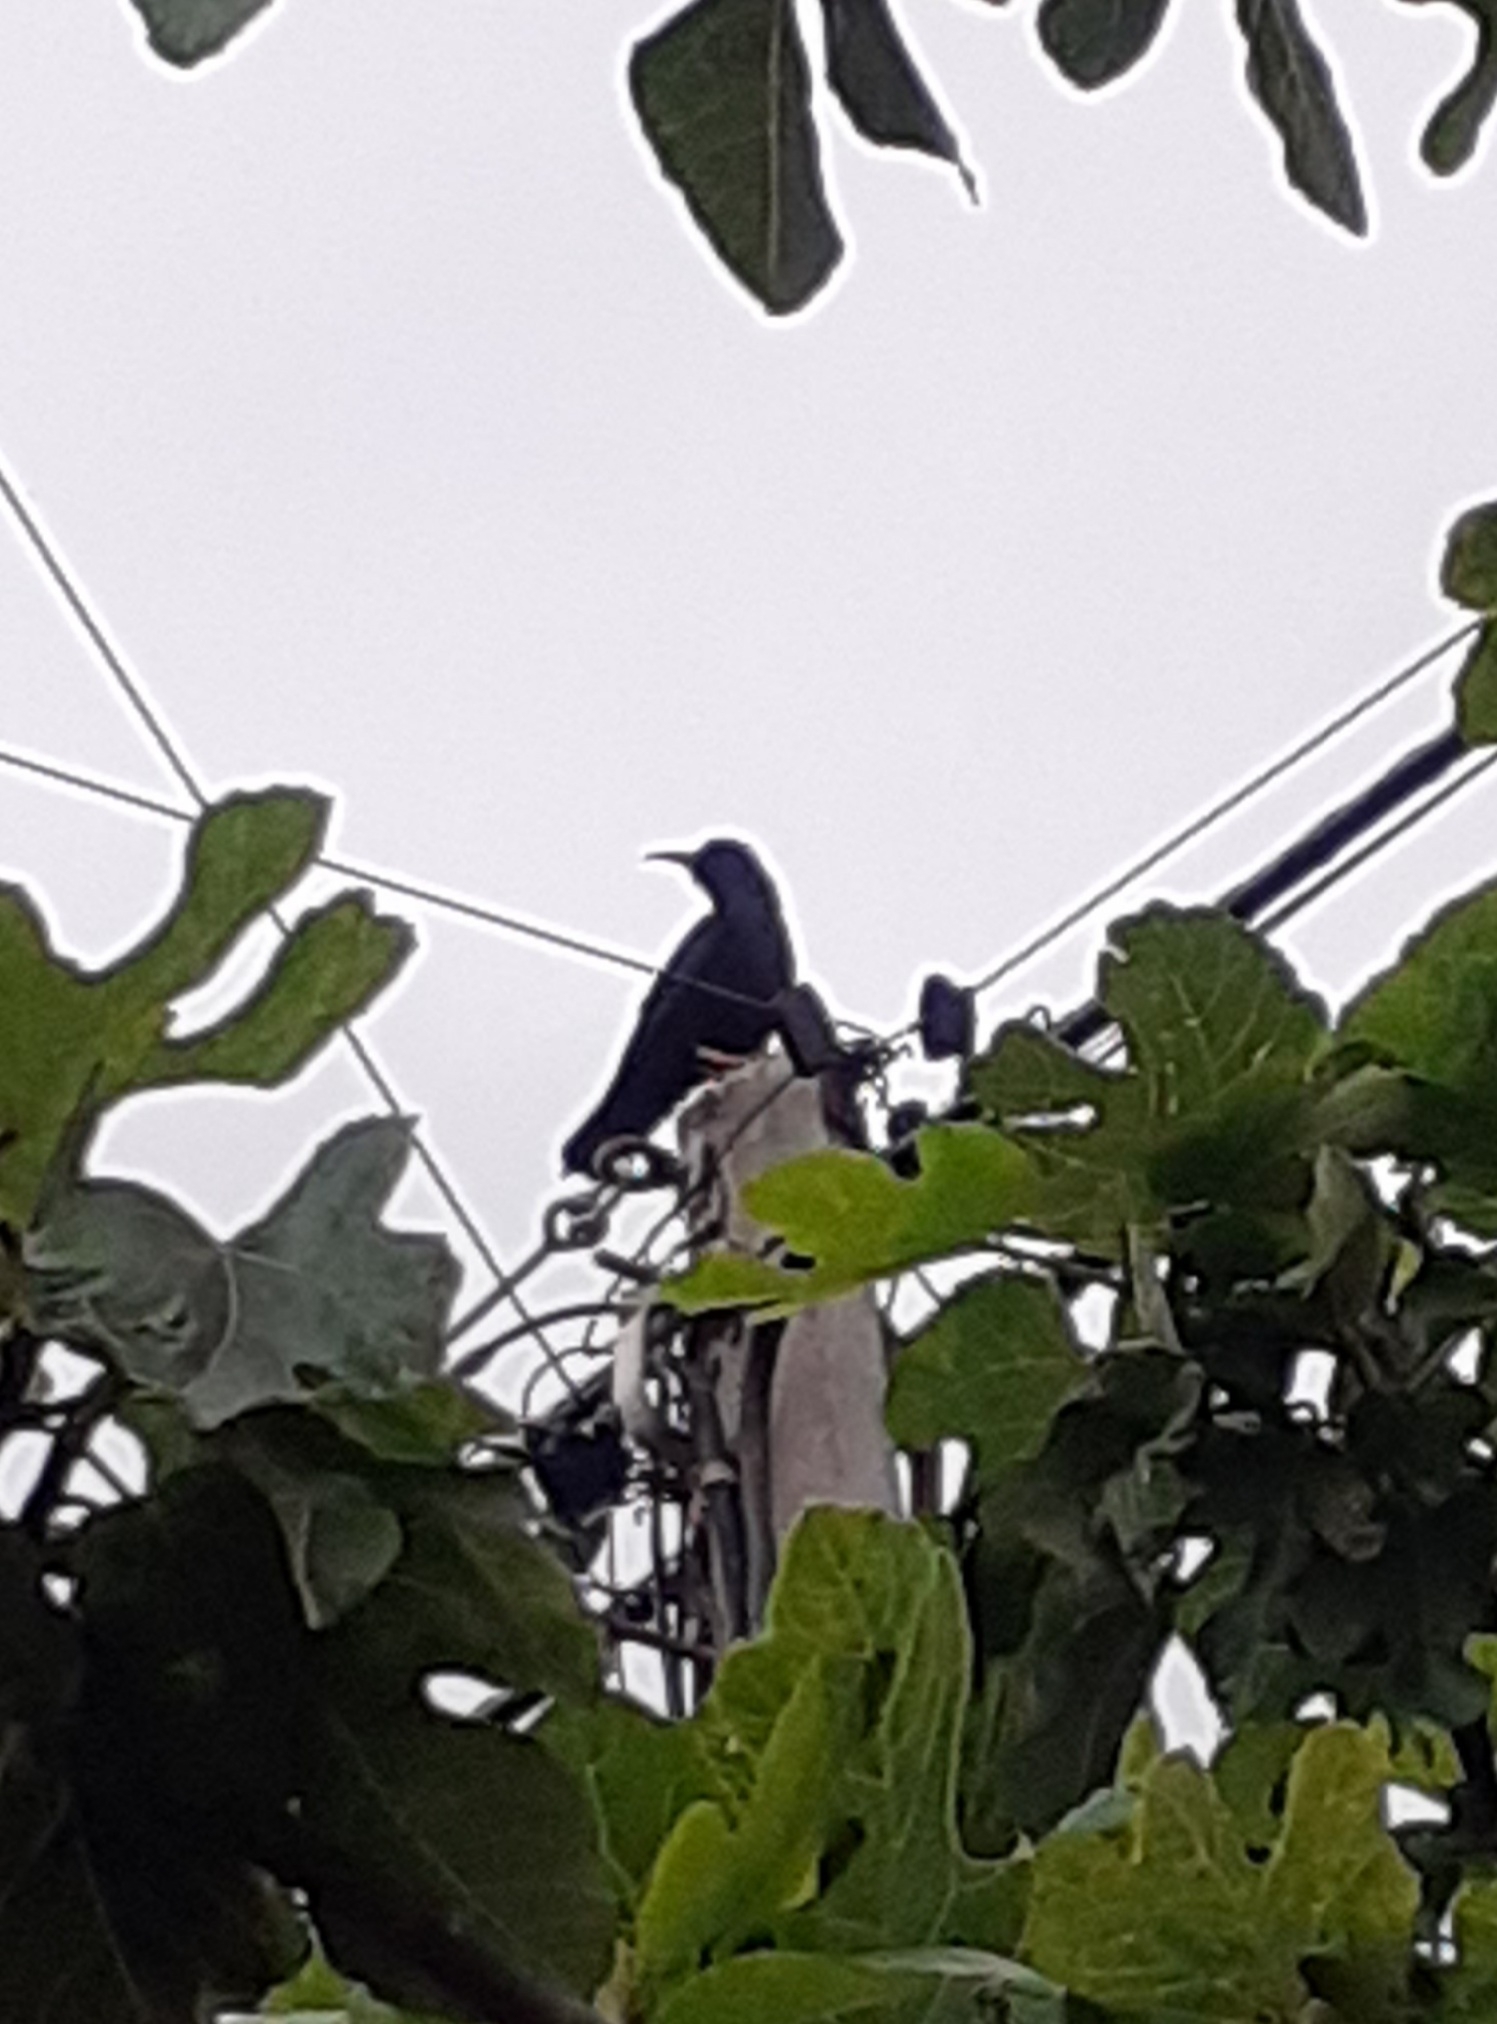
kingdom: Animalia
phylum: Chordata
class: Aves
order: Passeriformes
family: Corvidae
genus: Pyrrhocorax
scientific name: Pyrrhocorax pyrrhocorax
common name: Red-billed chough
